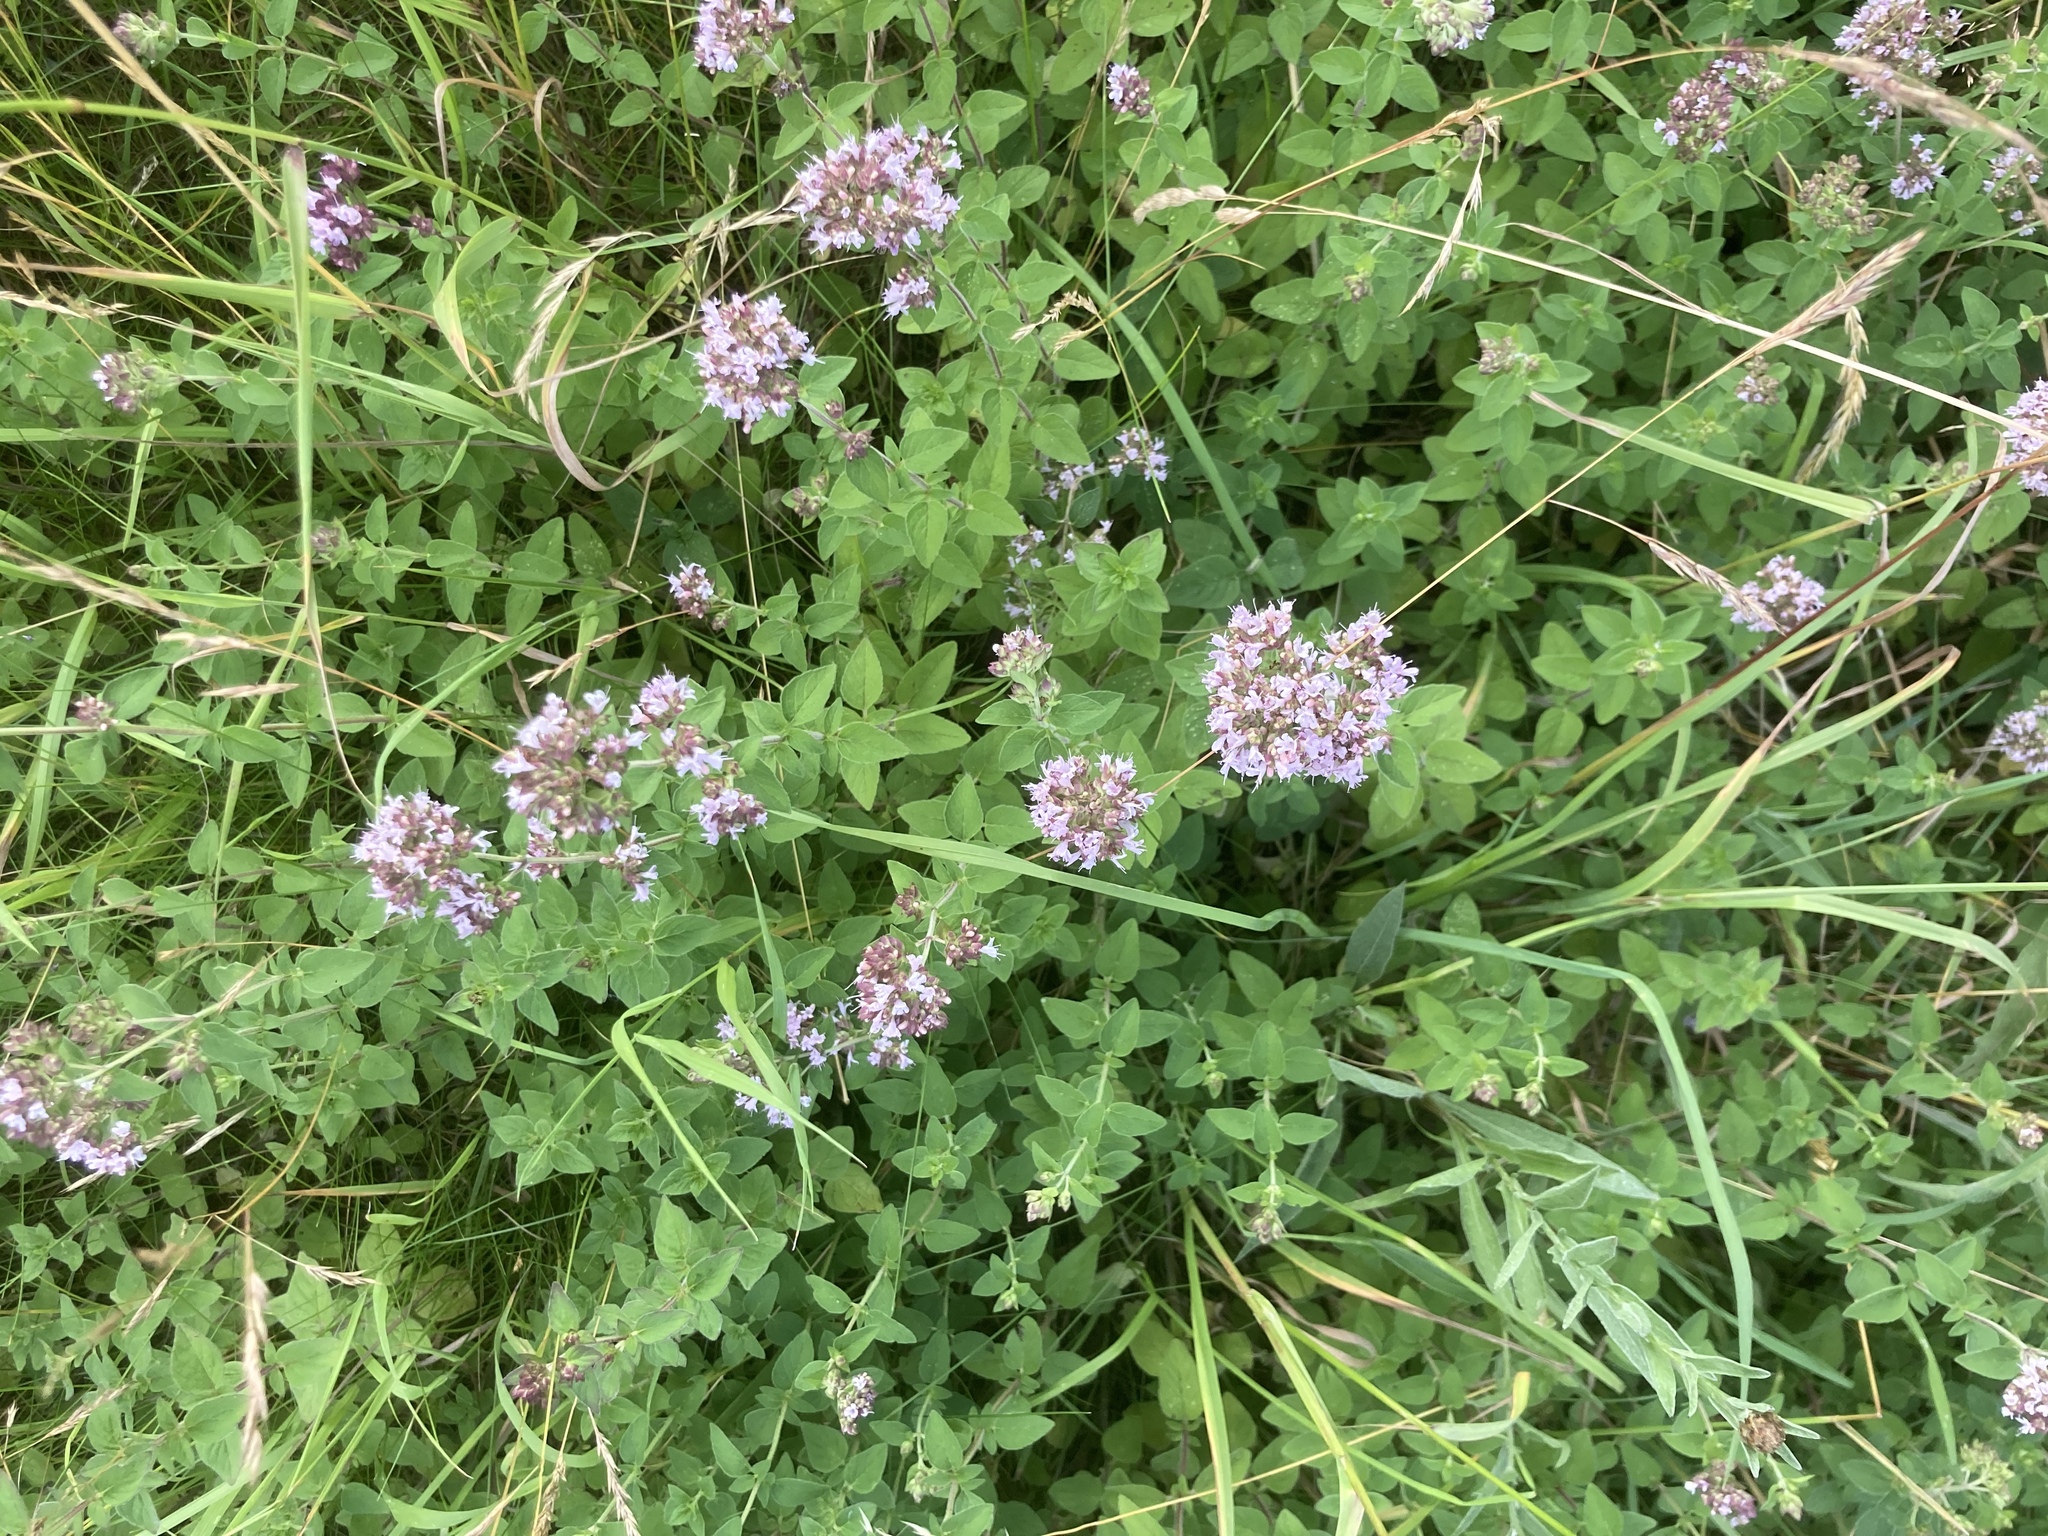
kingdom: Plantae
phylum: Tracheophyta
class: Magnoliopsida
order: Lamiales
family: Lamiaceae
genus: Origanum
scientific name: Origanum vulgare
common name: Wild marjoram
